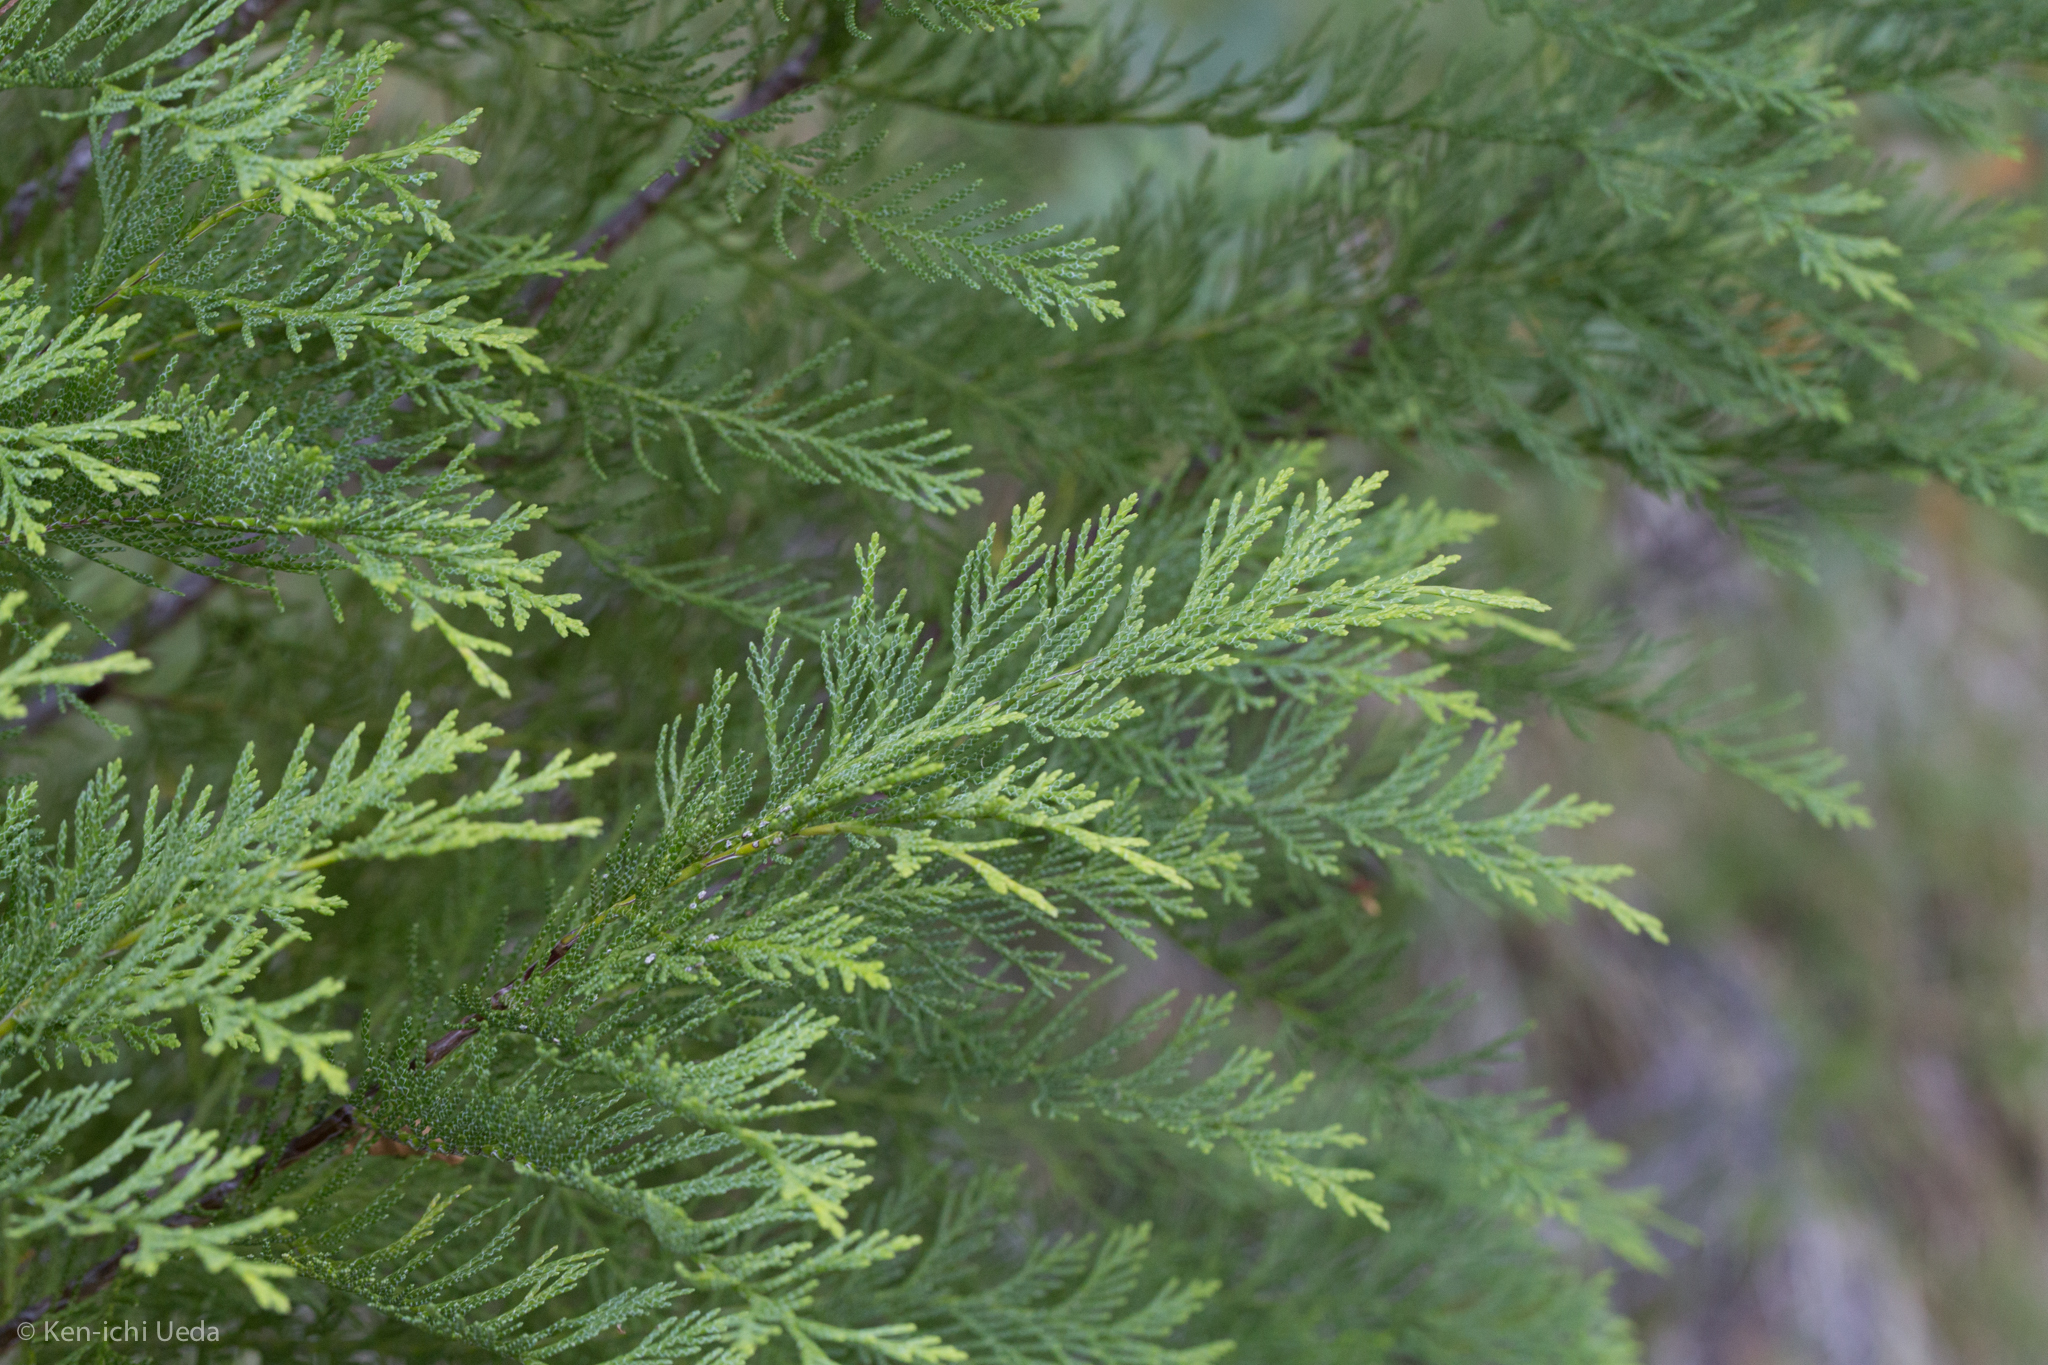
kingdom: Plantae
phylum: Tracheophyta
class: Pinopsida
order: Pinales
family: Cupressaceae
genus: Chamaecyparis
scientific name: Chamaecyparis lawsoniana
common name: Lawson's cypress
